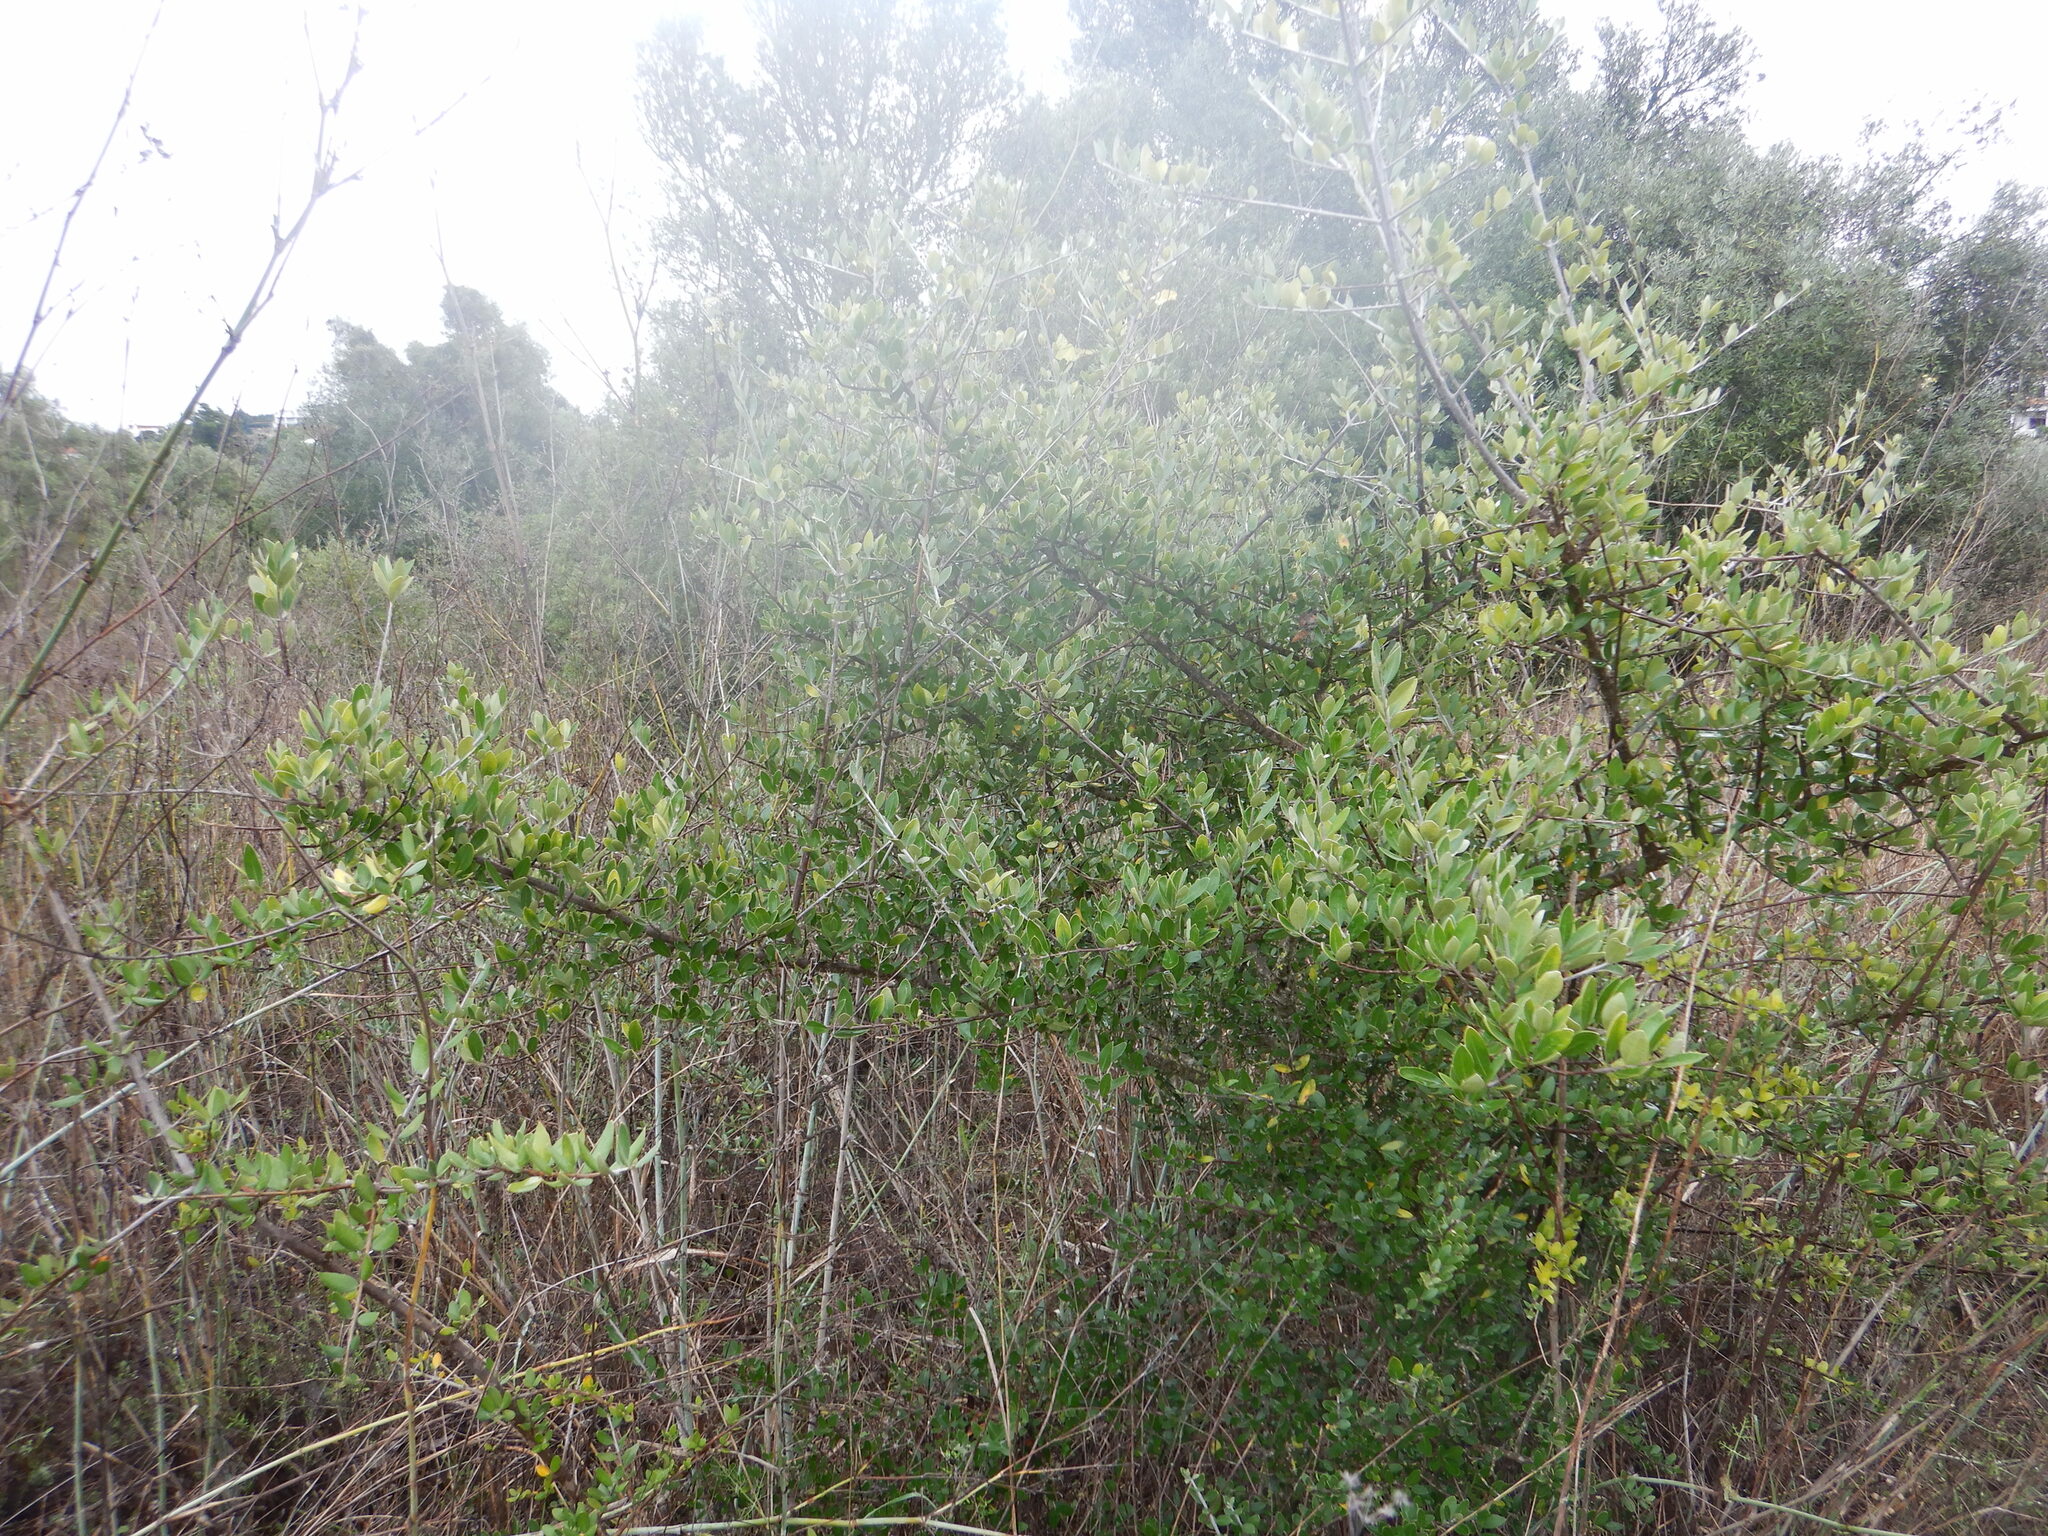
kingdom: Plantae
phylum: Tracheophyta
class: Magnoliopsida
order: Lamiales
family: Oleaceae
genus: Olea
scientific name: Olea europaea
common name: Olive
